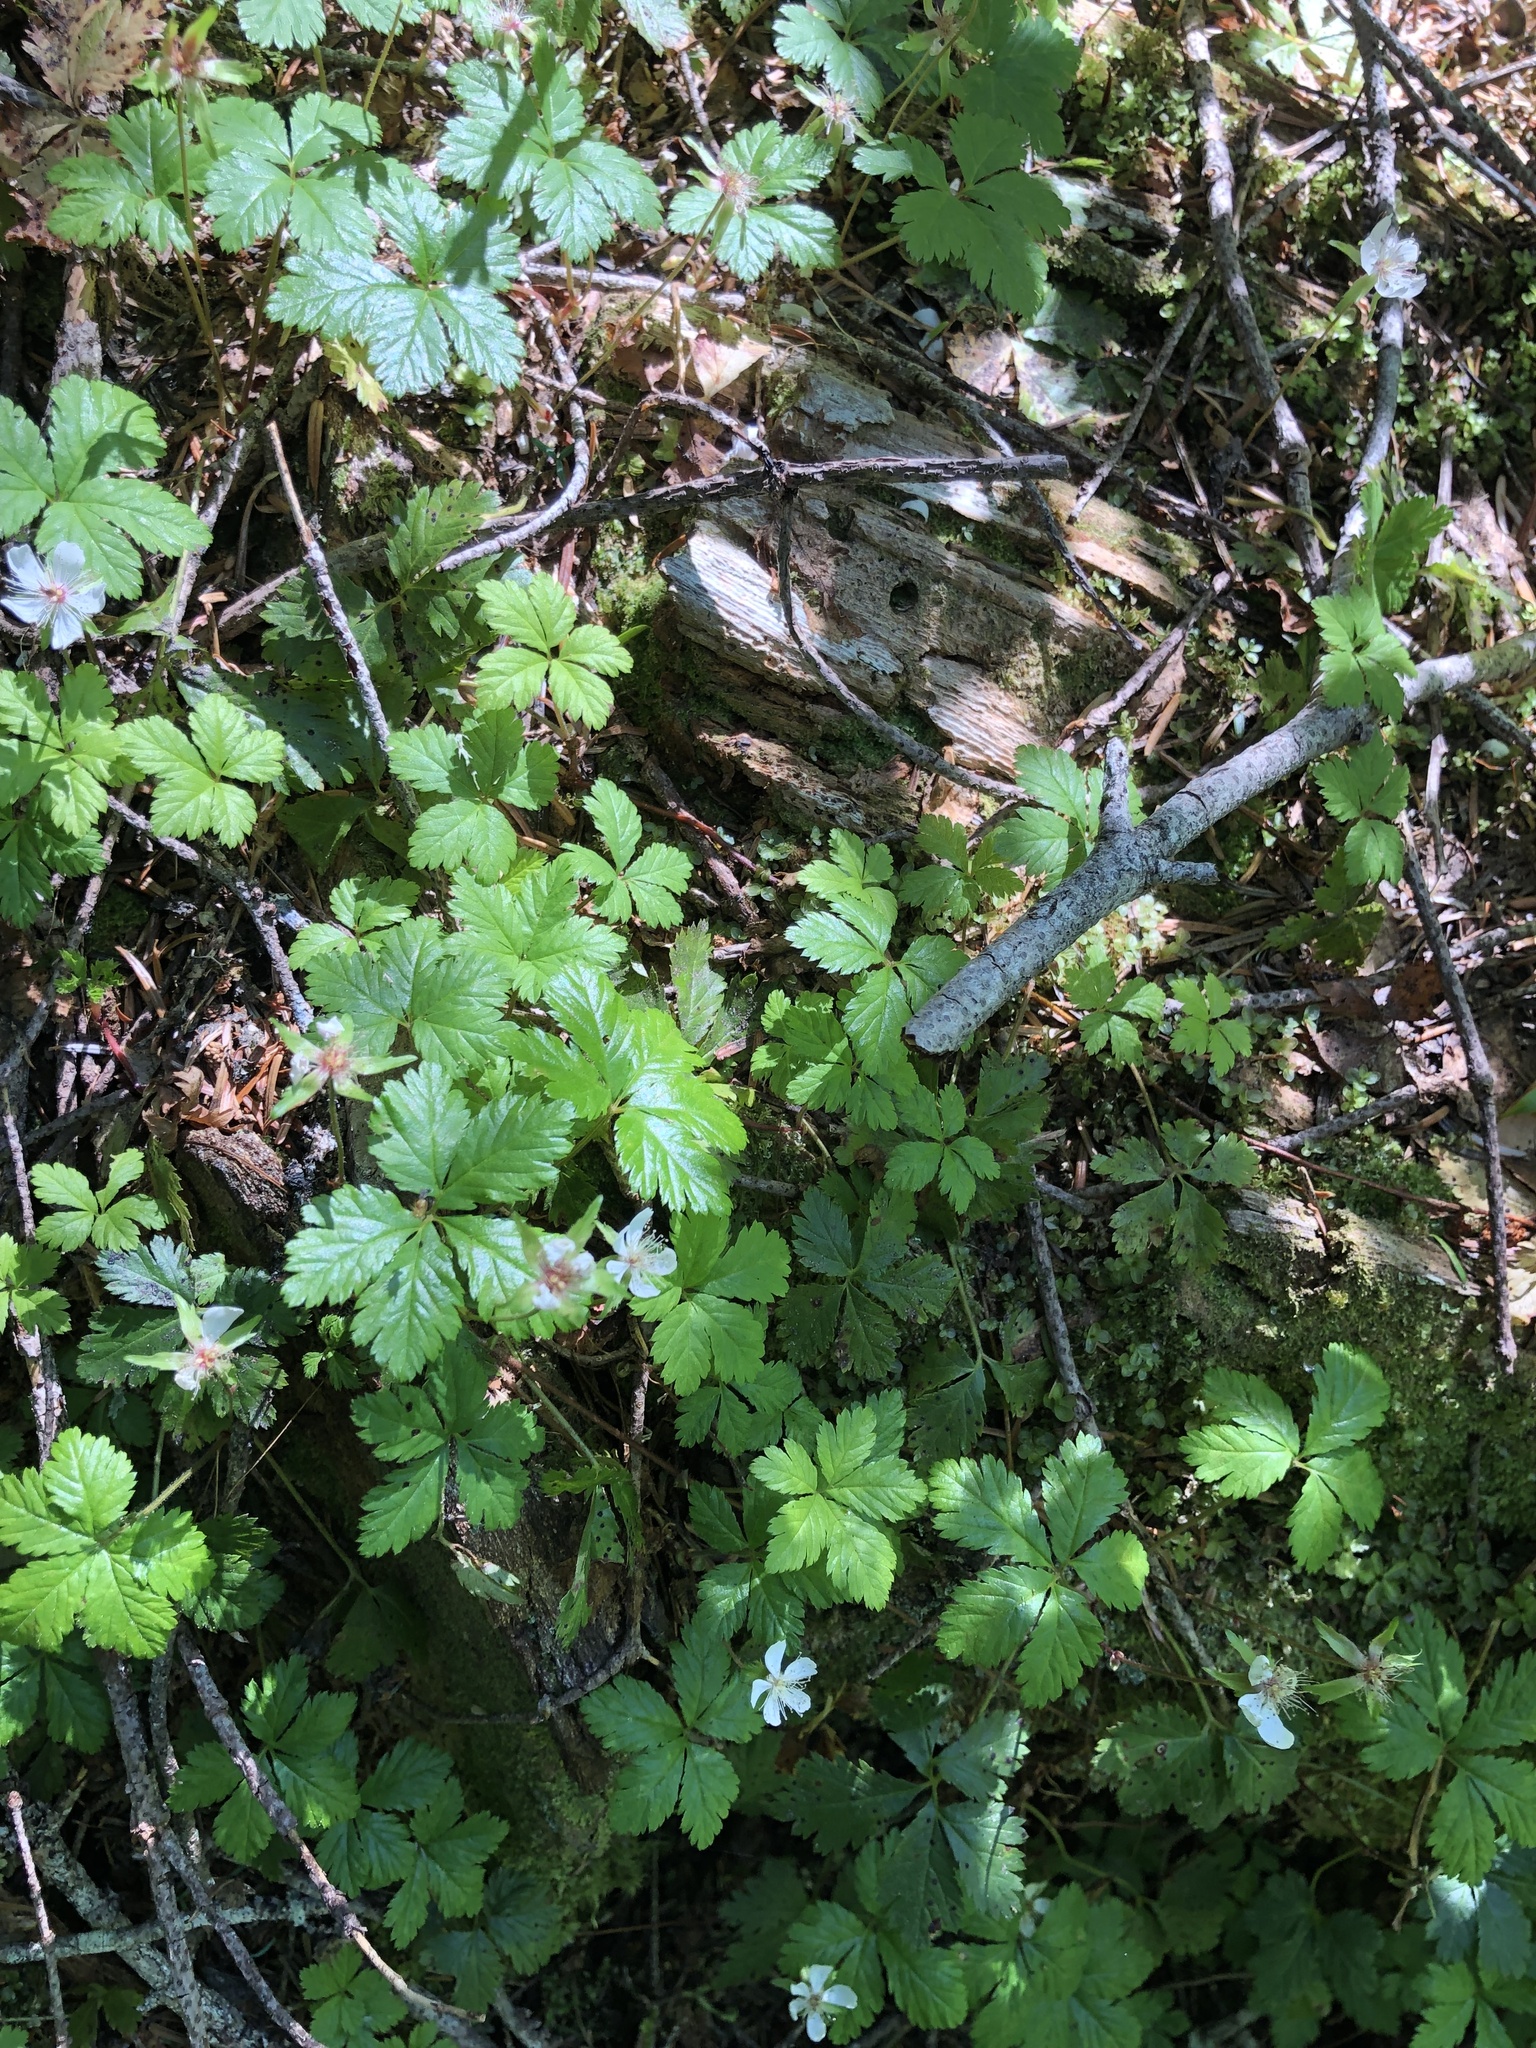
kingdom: Plantae
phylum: Tracheophyta
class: Magnoliopsida
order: Rosales
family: Rosaceae
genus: Rubus
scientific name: Rubus pedatus
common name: Creeping raspberry
